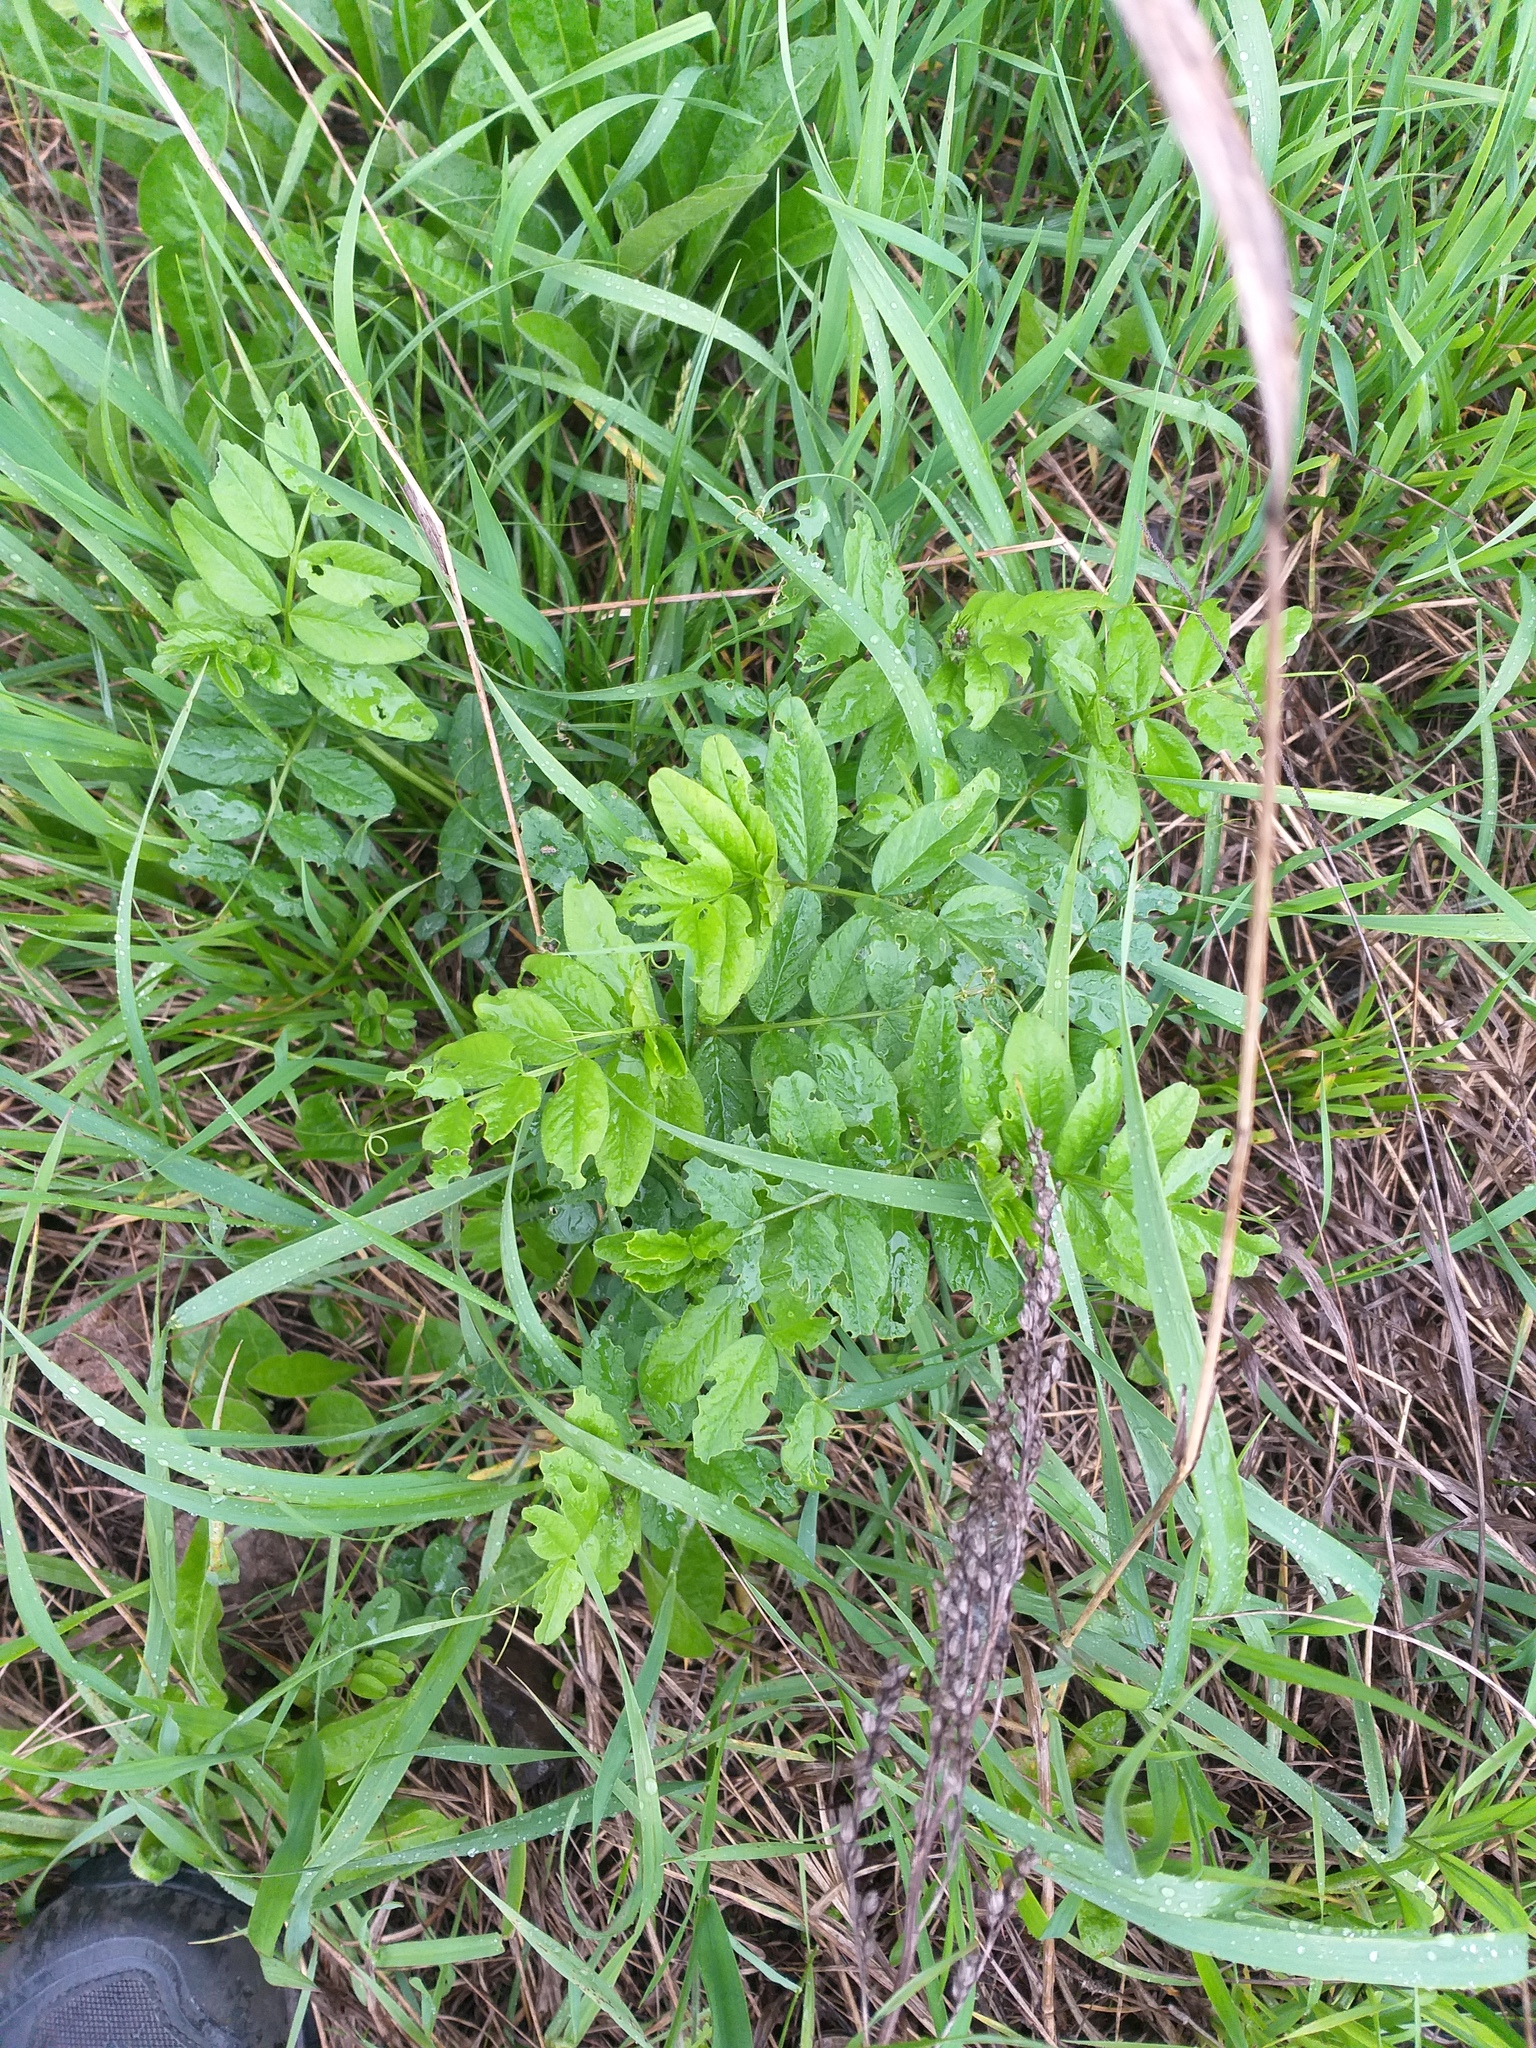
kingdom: Plantae
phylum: Tracheophyta
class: Magnoliopsida
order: Fabales
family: Fabaceae
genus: Vicia
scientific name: Vicia sepium
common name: Bush vetch
